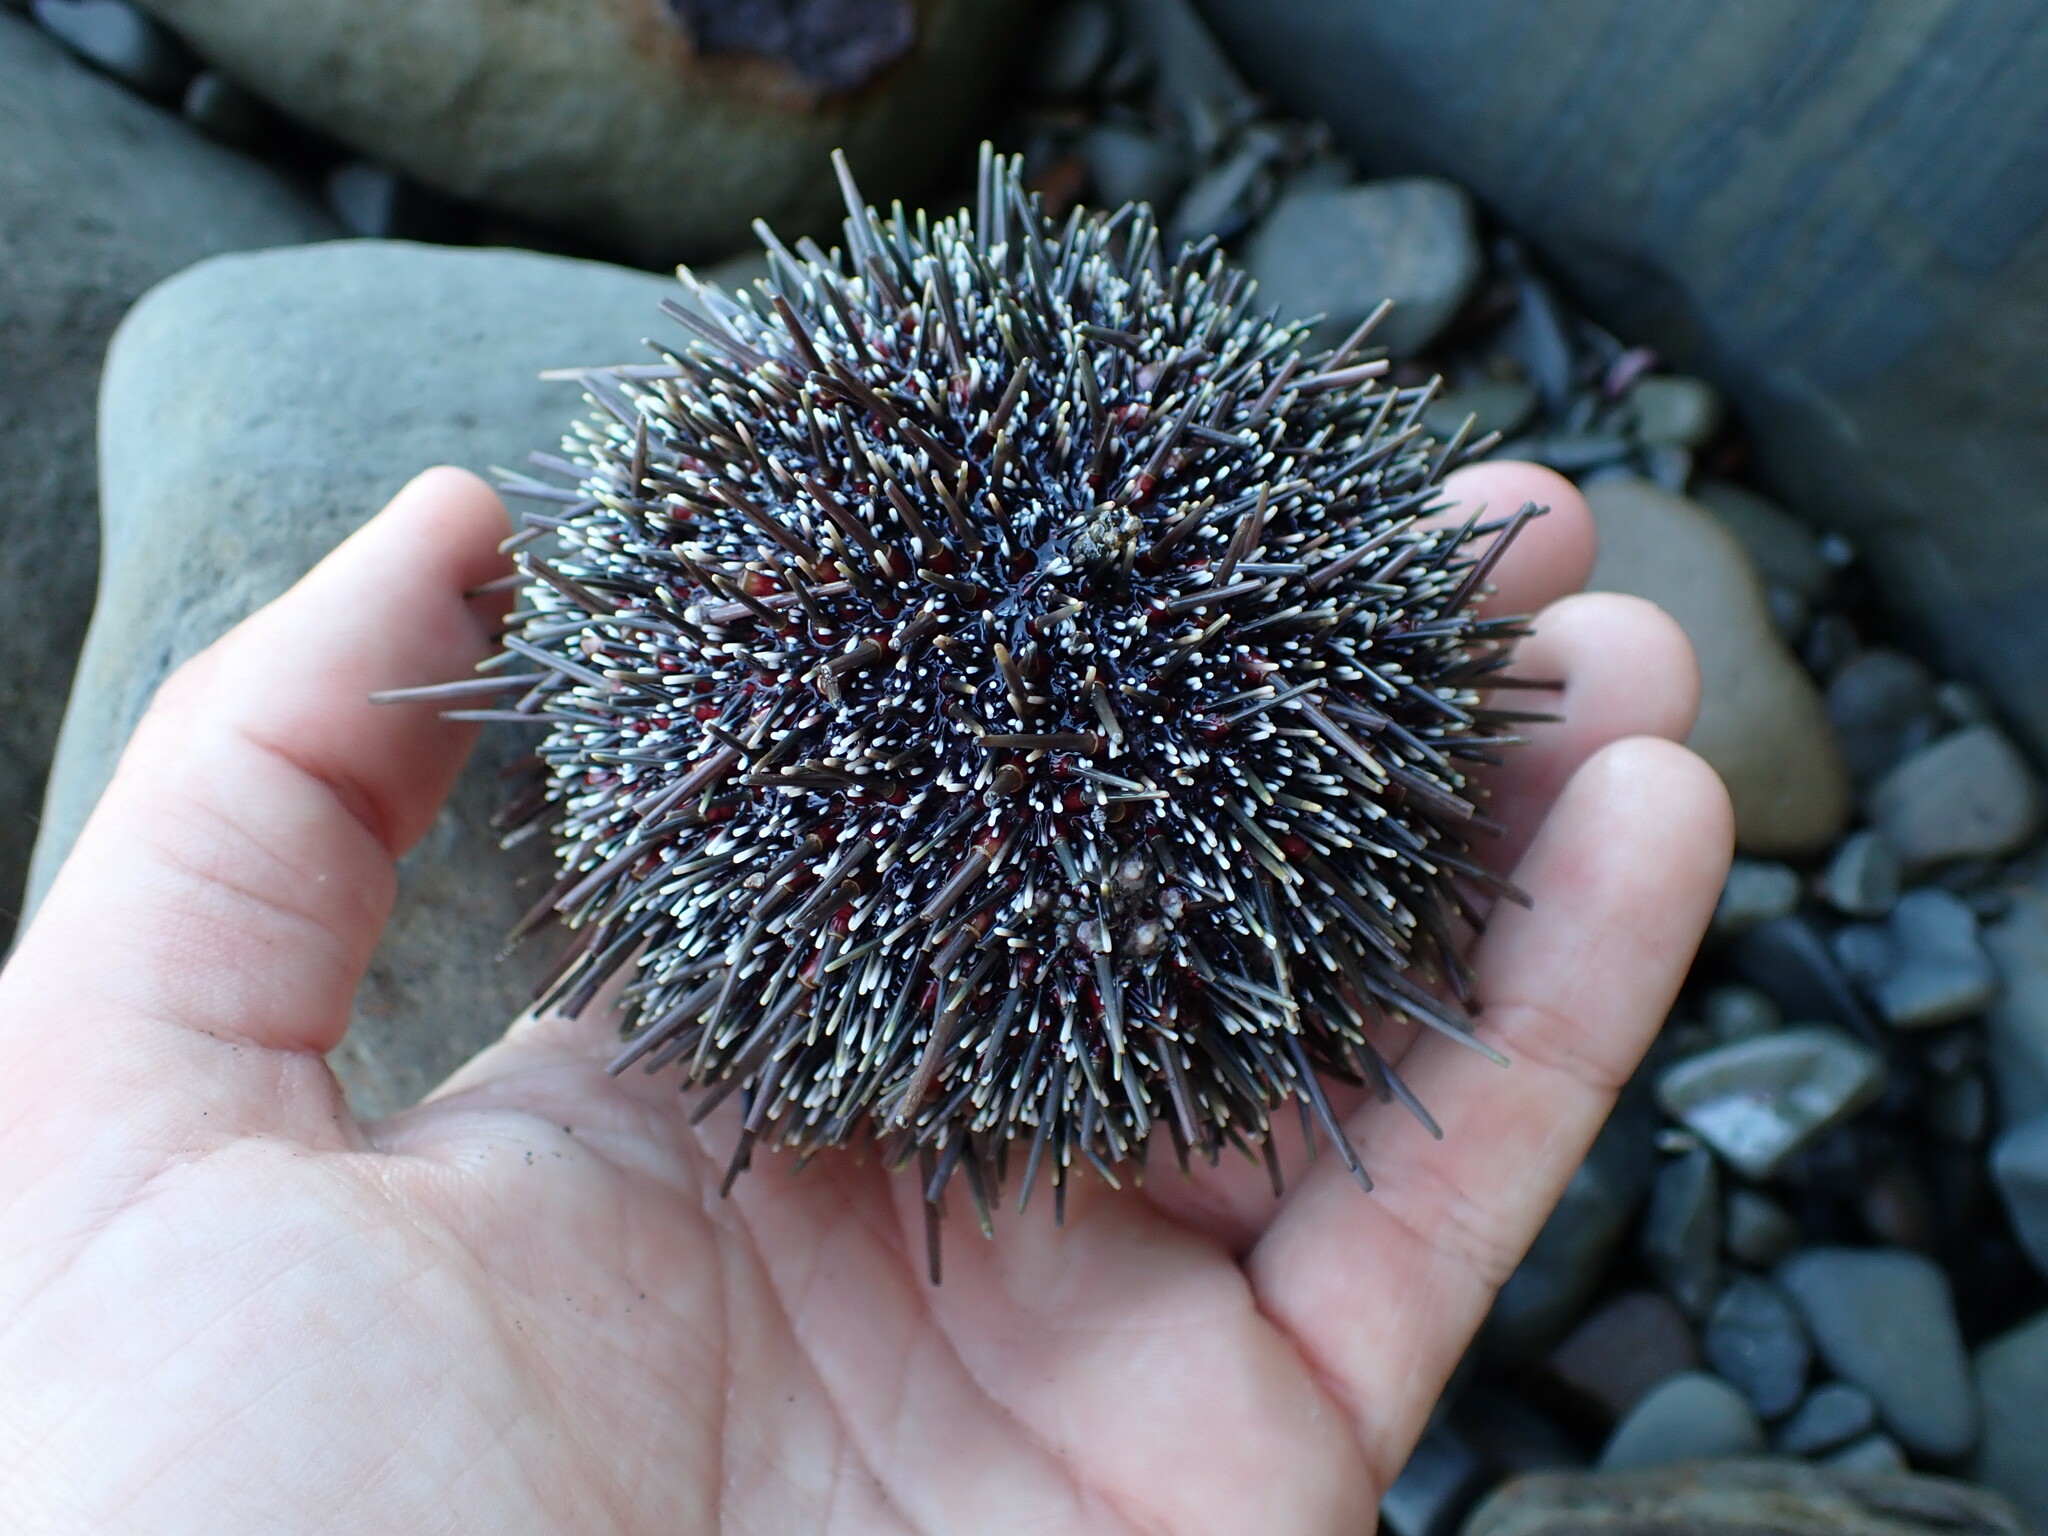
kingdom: Animalia
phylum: Echinodermata
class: Echinoidea
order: Camarodonta
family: Echinometridae
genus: Evechinus
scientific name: Evechinus chloroticus
